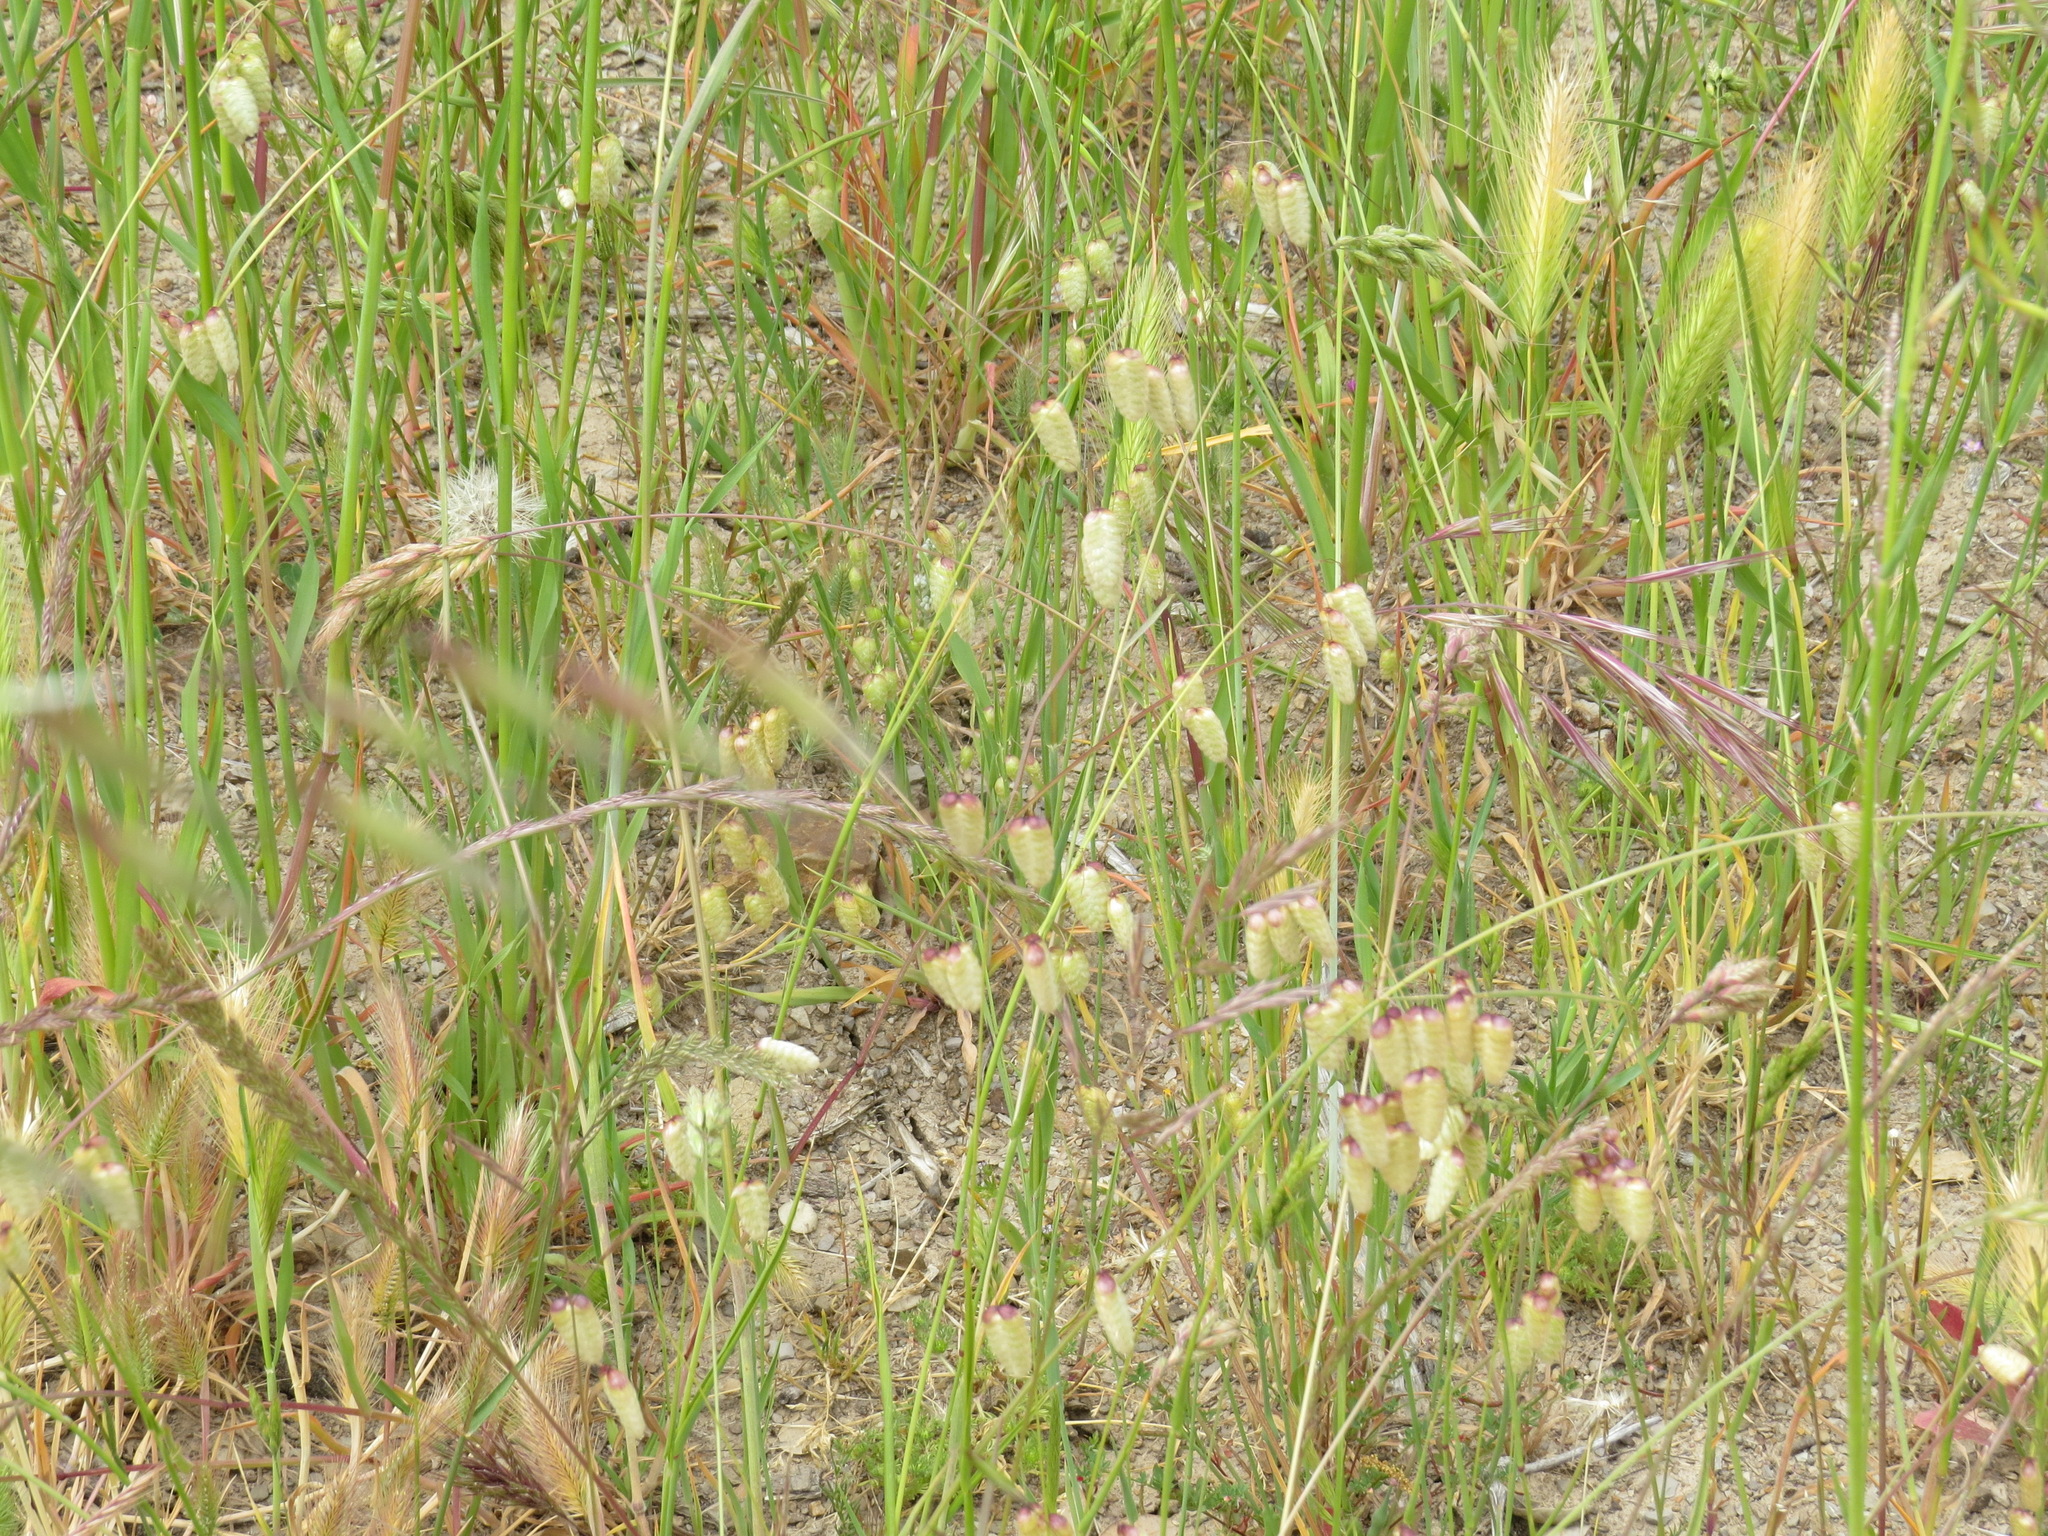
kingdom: Plantae
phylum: Tracheophyta
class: Liliopsida
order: Poales
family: Poaceae
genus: Briza
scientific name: Briza maxima
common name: Big quakinggrass
